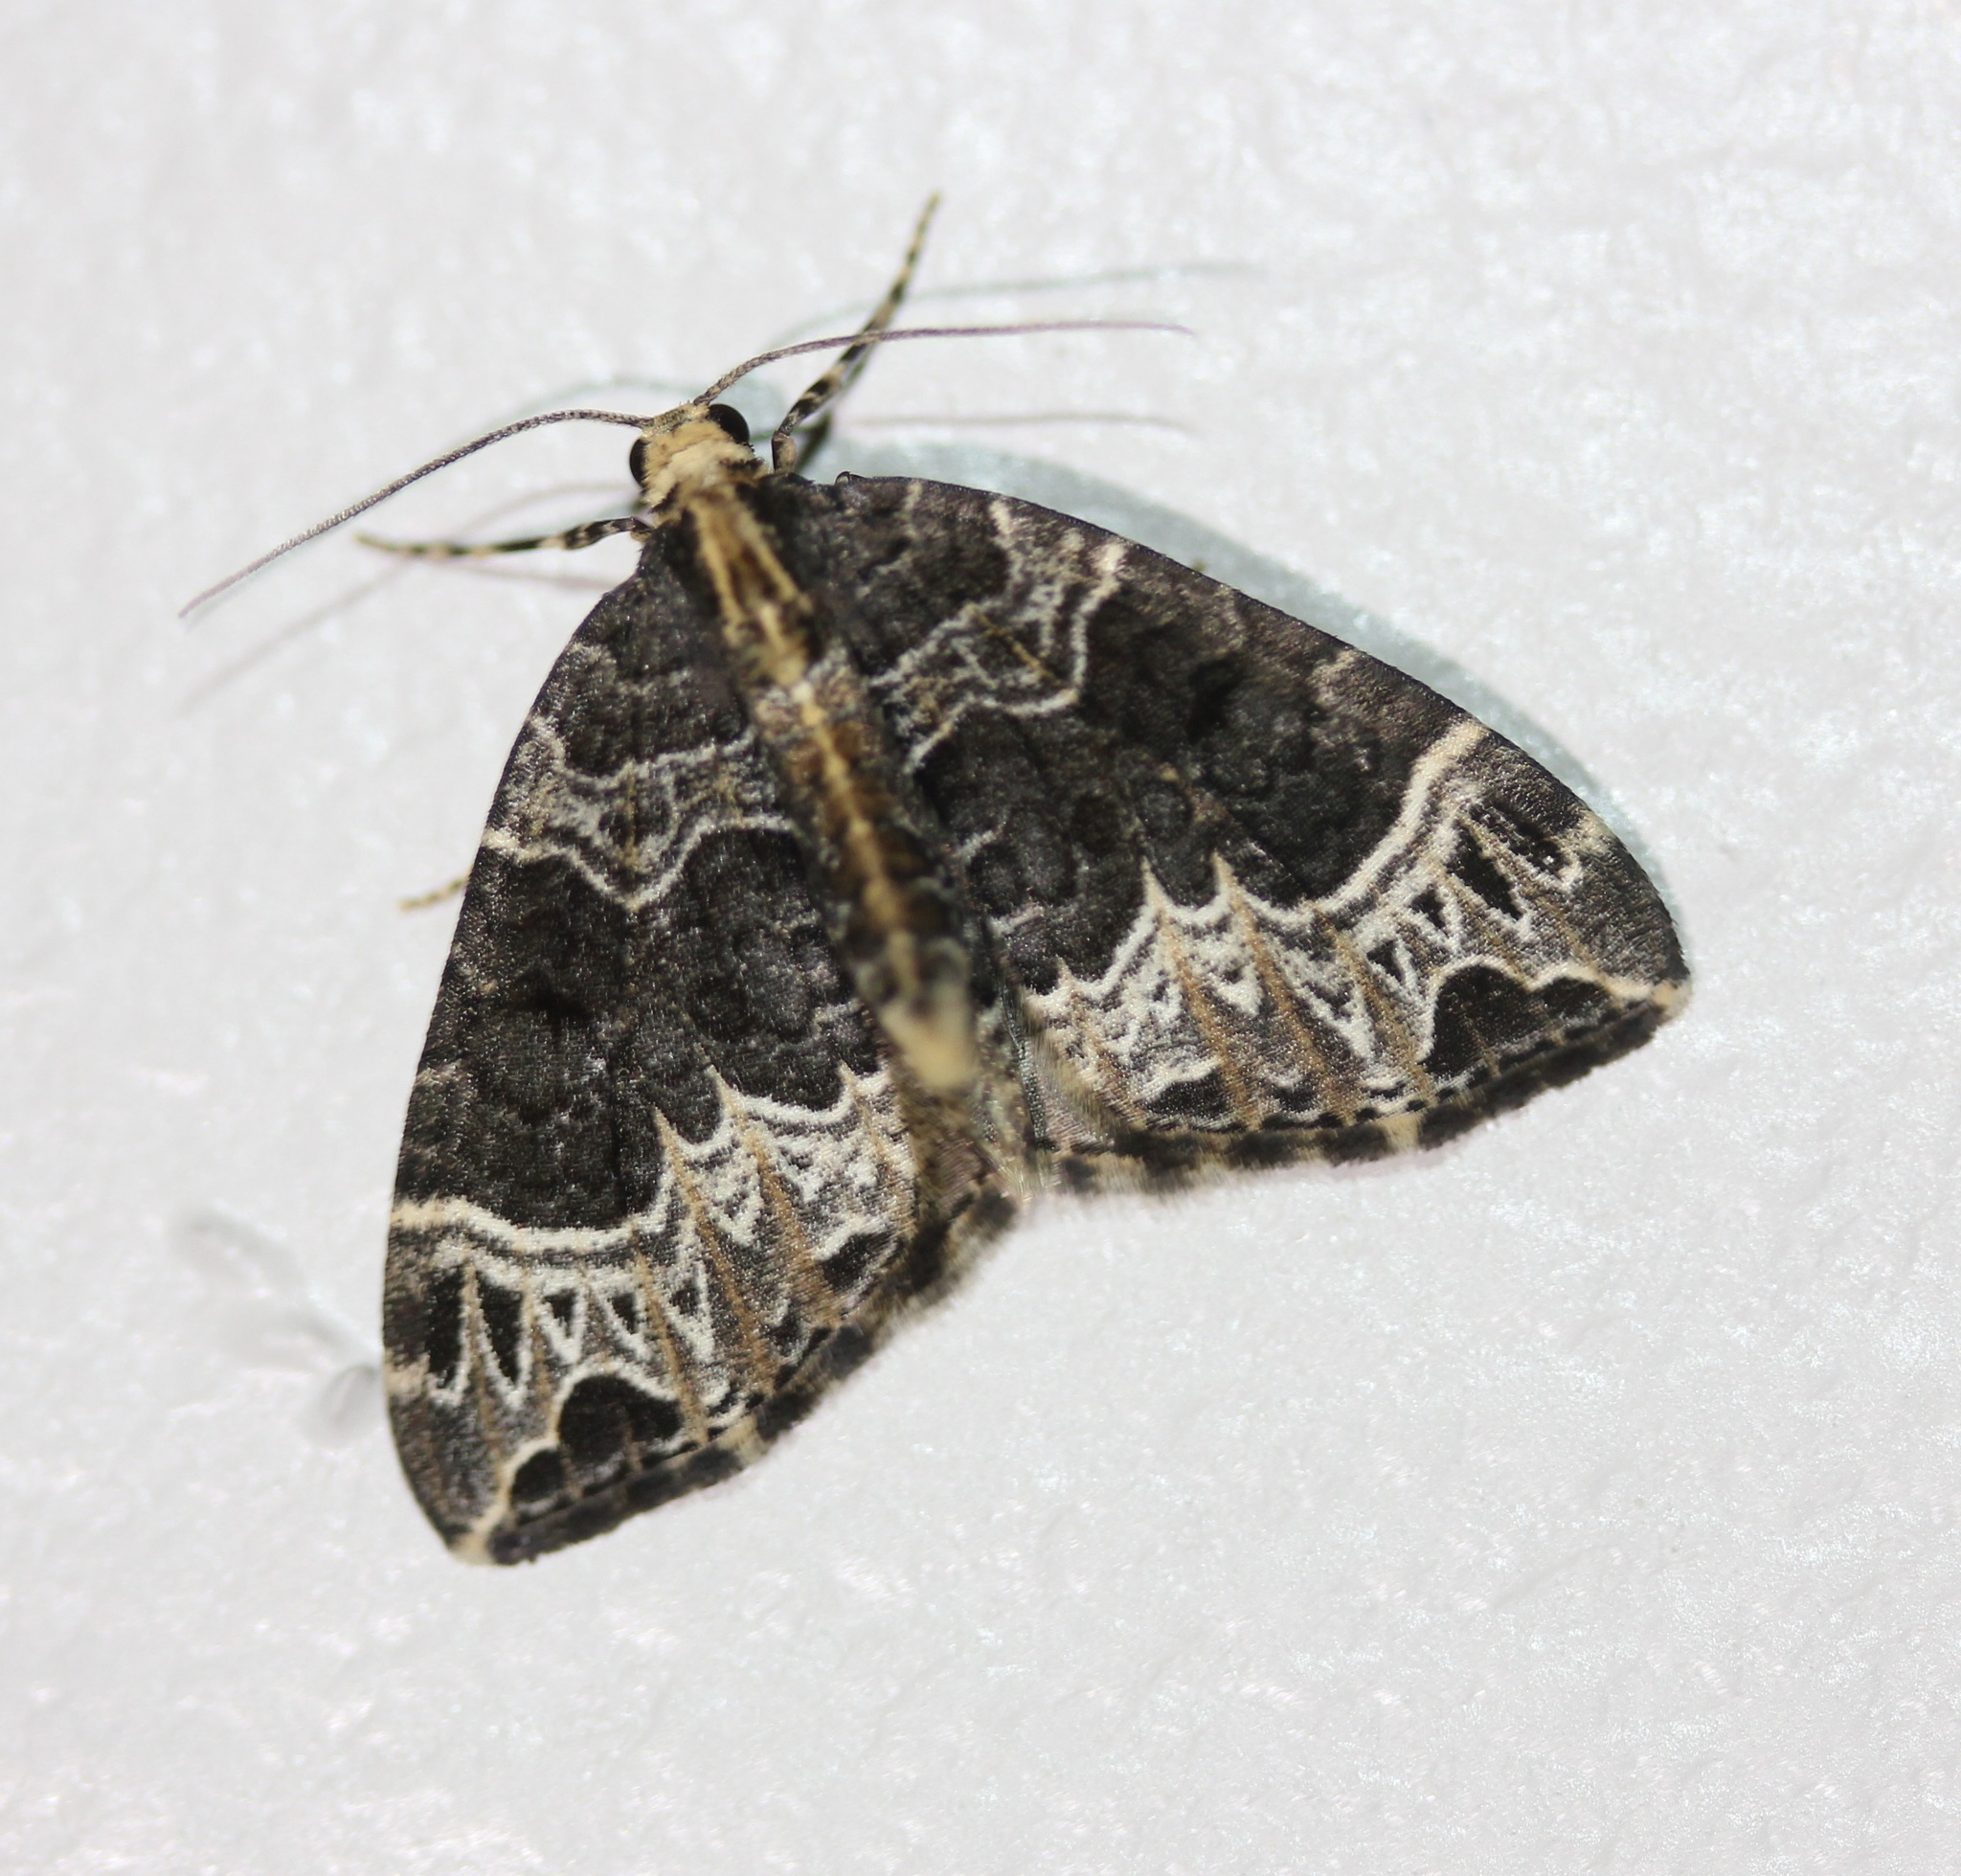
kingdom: Animalia
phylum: Arthropoda
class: Insecta
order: Lepidoptera
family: Geometridae
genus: Ecliptopera
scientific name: Ecliptopera silaceata
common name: Small phoenix
